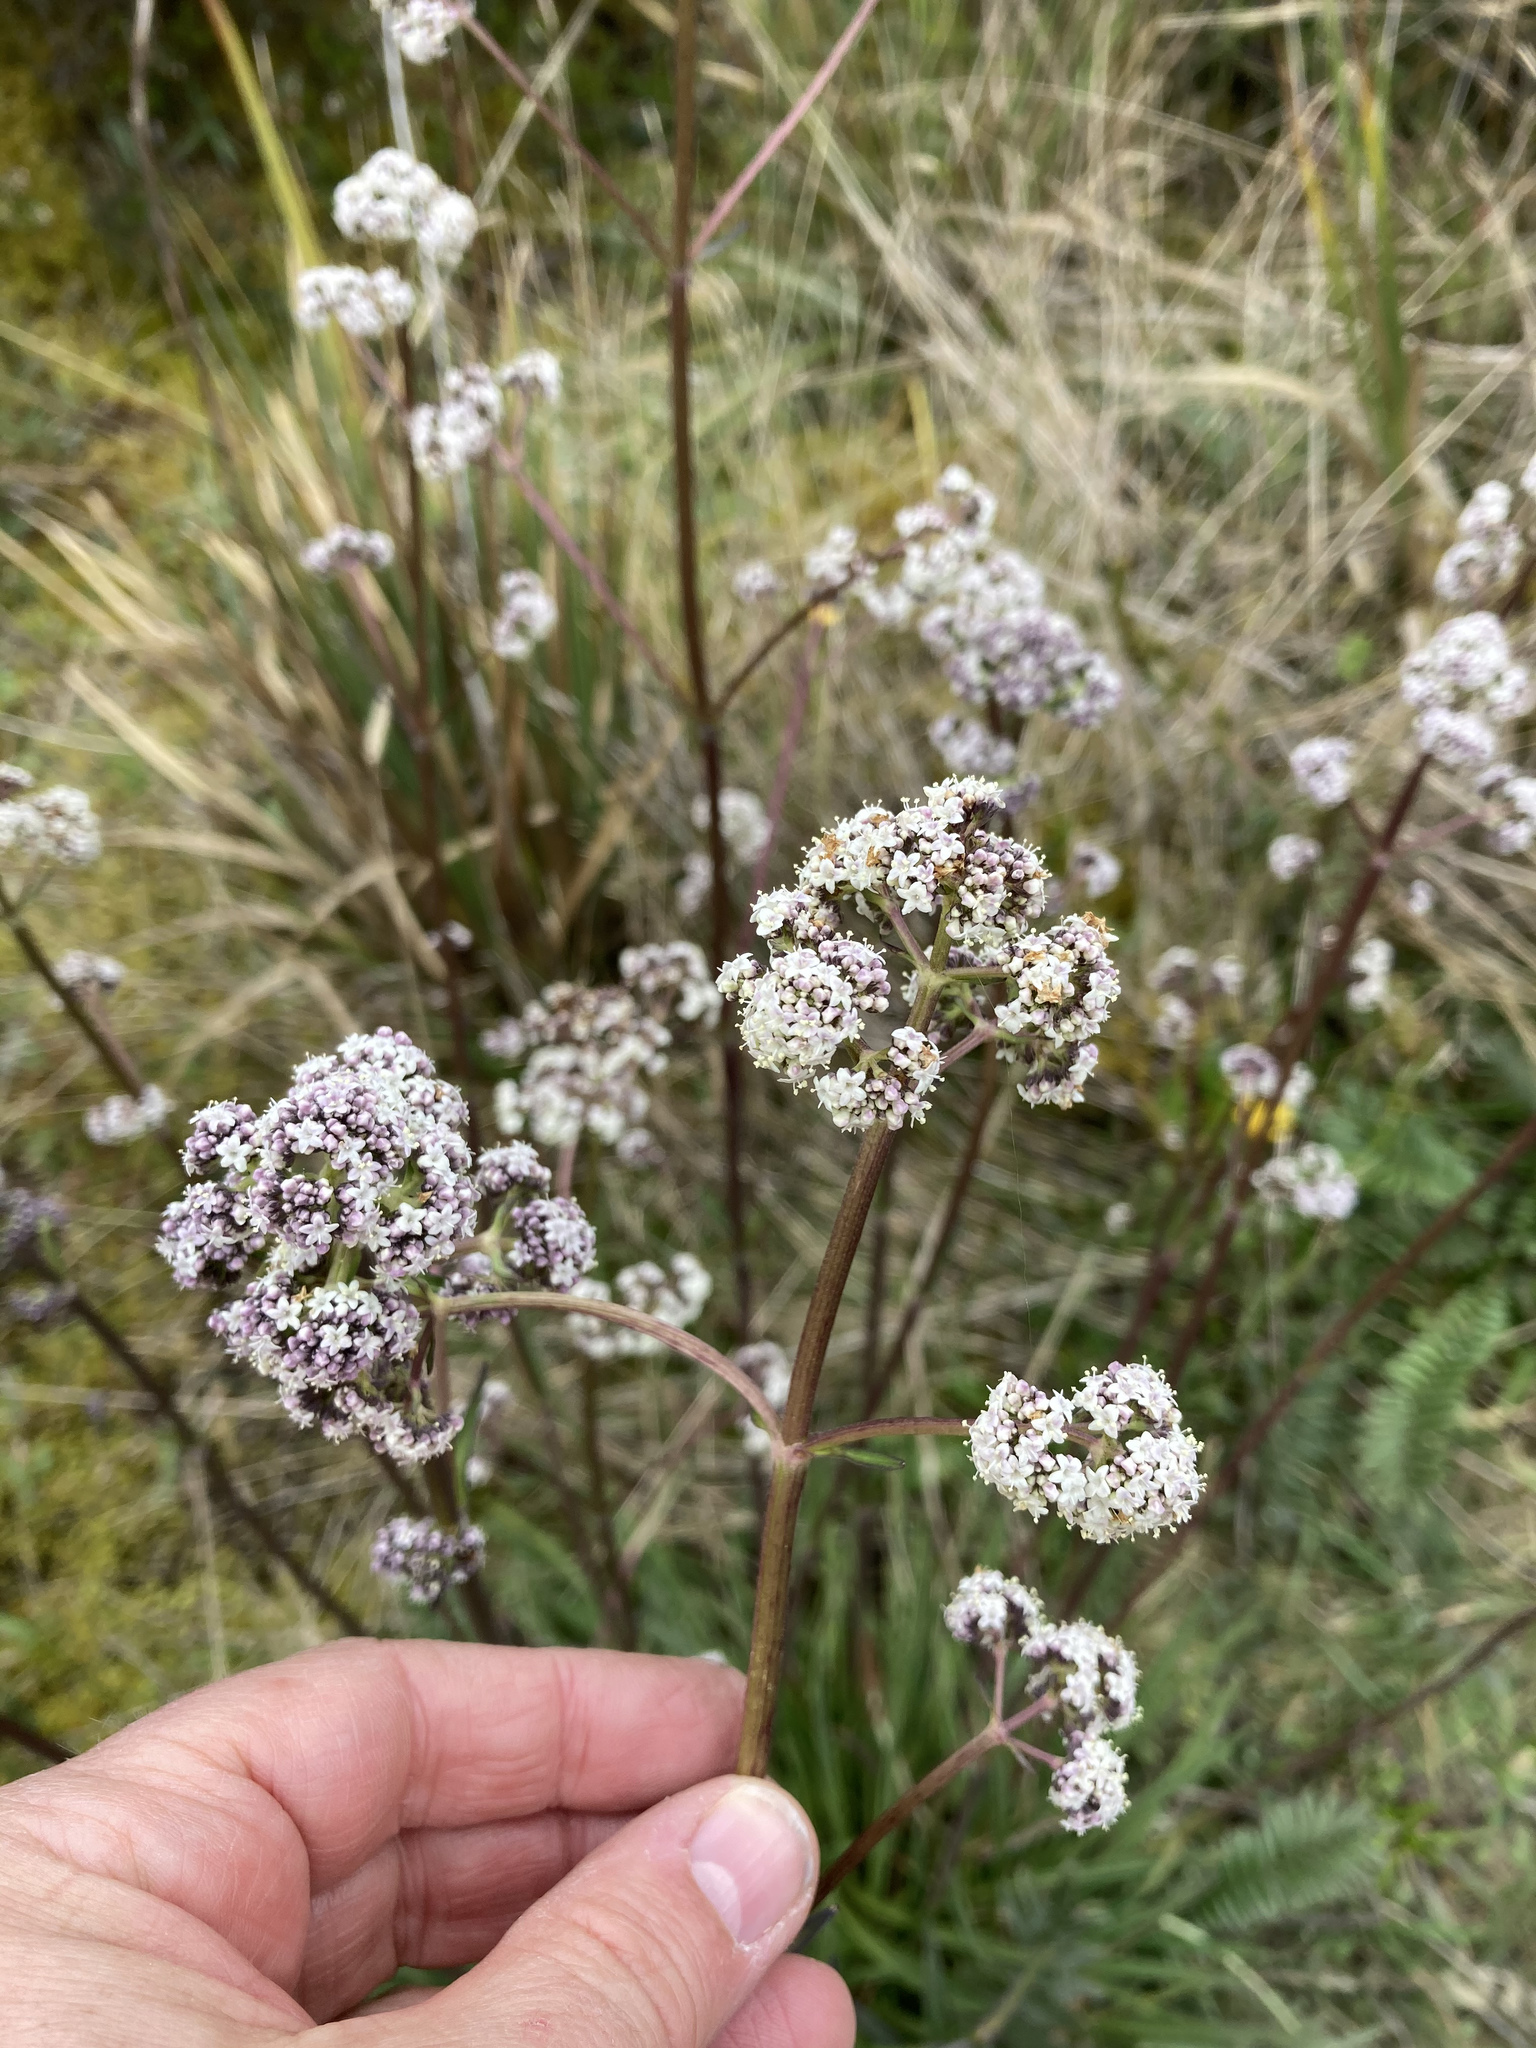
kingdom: Plantae
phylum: Tracheophyta
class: Magnoliopsida
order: Dipsacales
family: Caprifoliaceae
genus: Valeriana
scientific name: Valeriana pilosa
